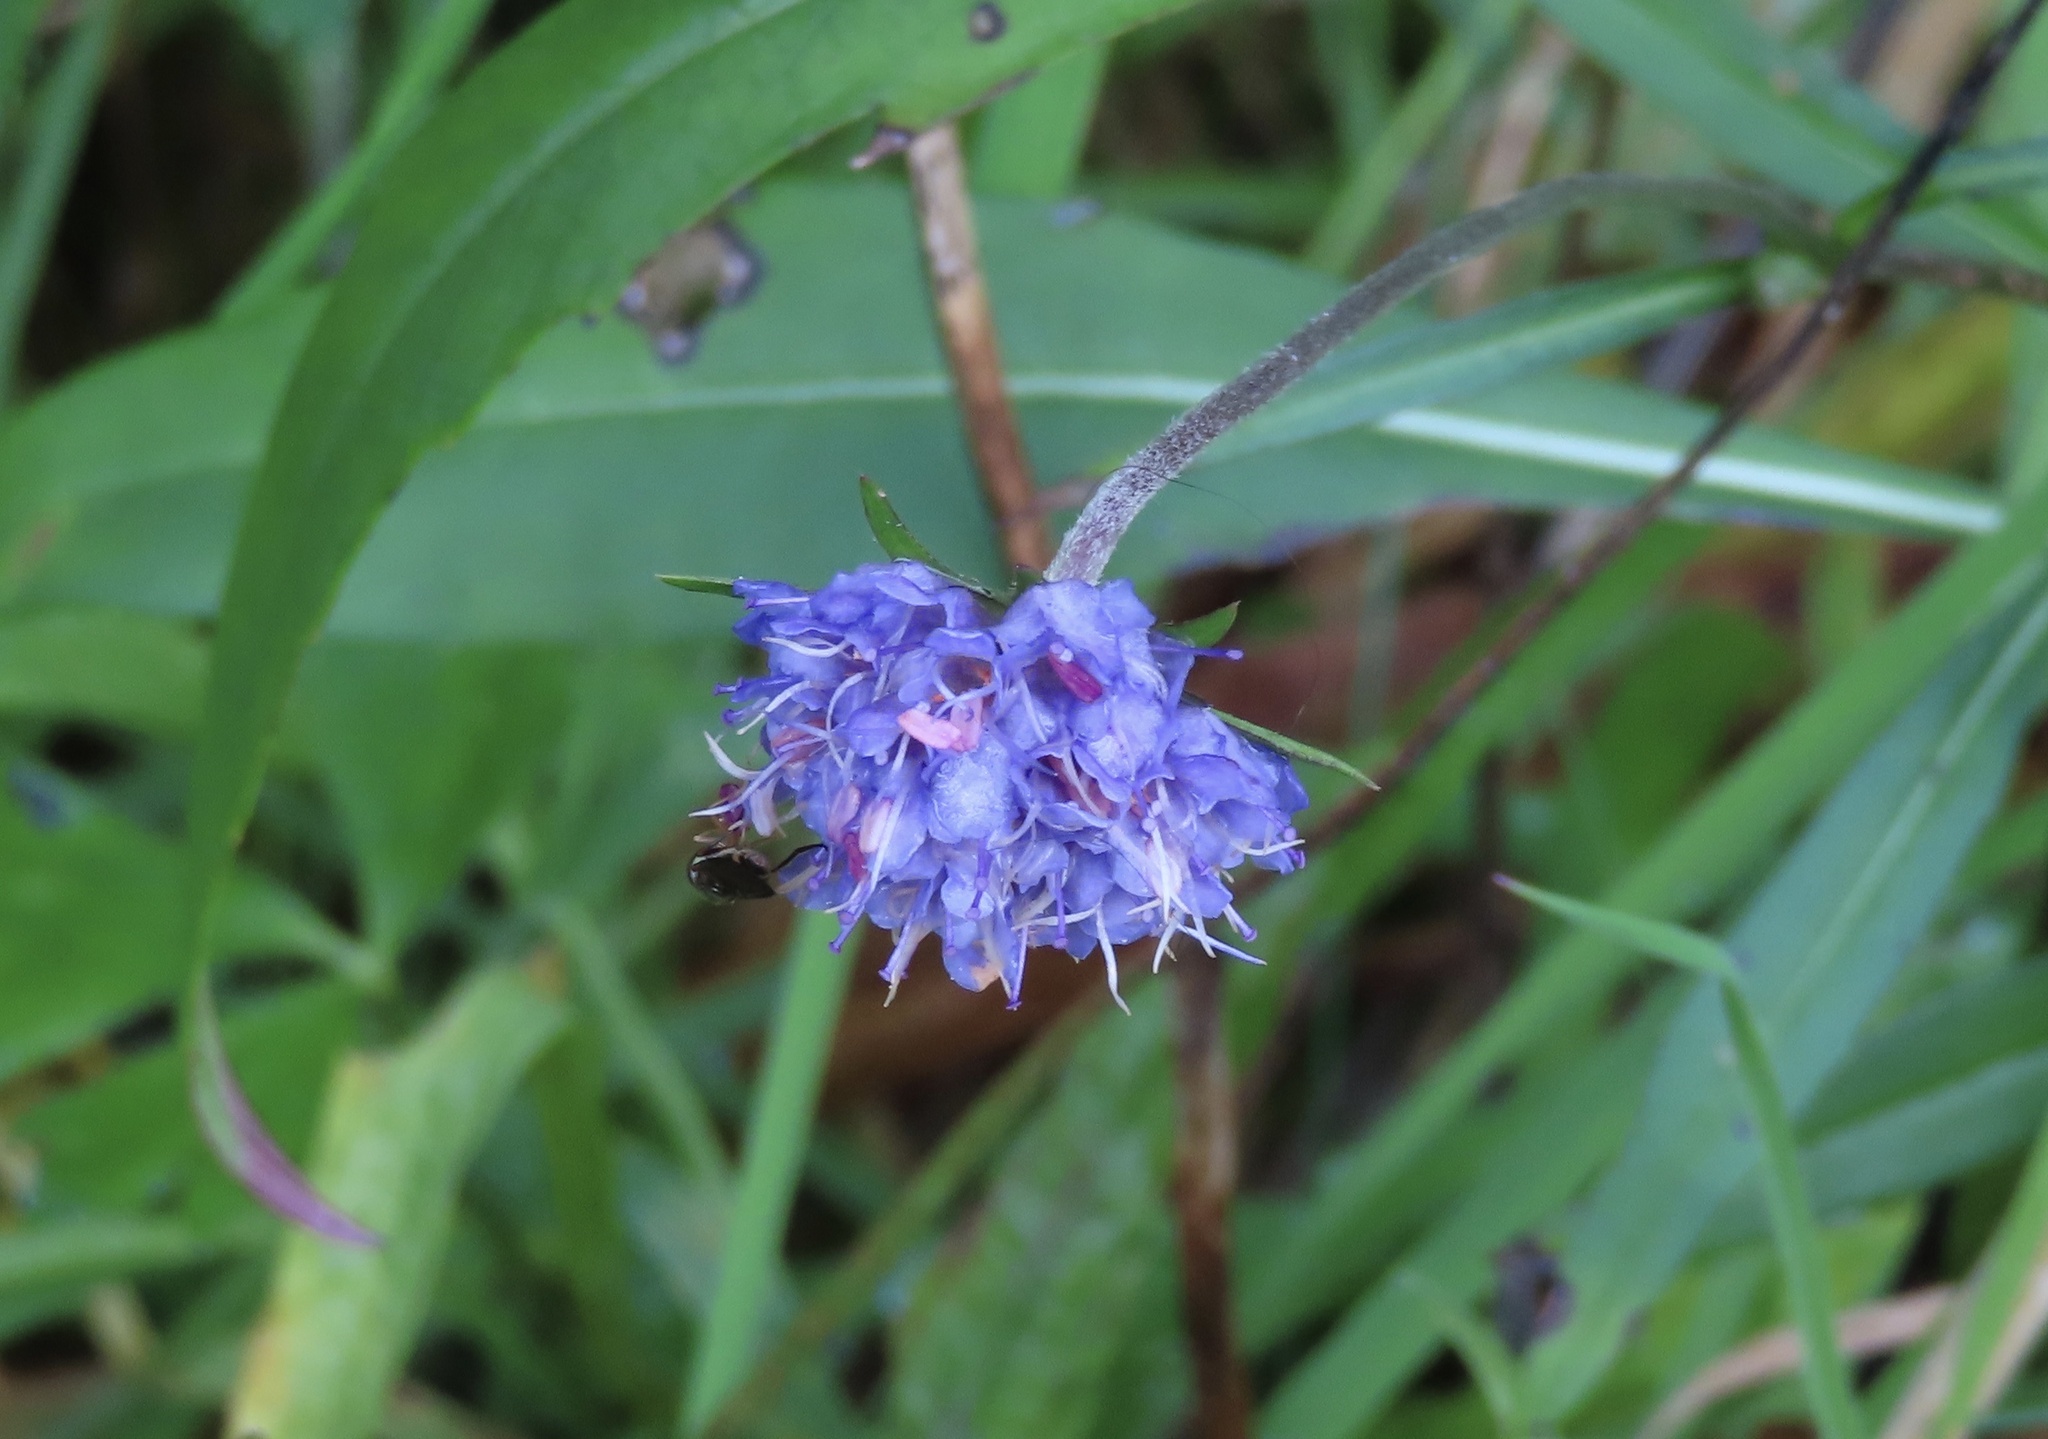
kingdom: Plantae
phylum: Tracheophyta
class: Magnoliopsida
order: Dipsacales
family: Caprifoliaceae
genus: Succisa
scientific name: Succisa pratensis
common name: Devil's-bit
